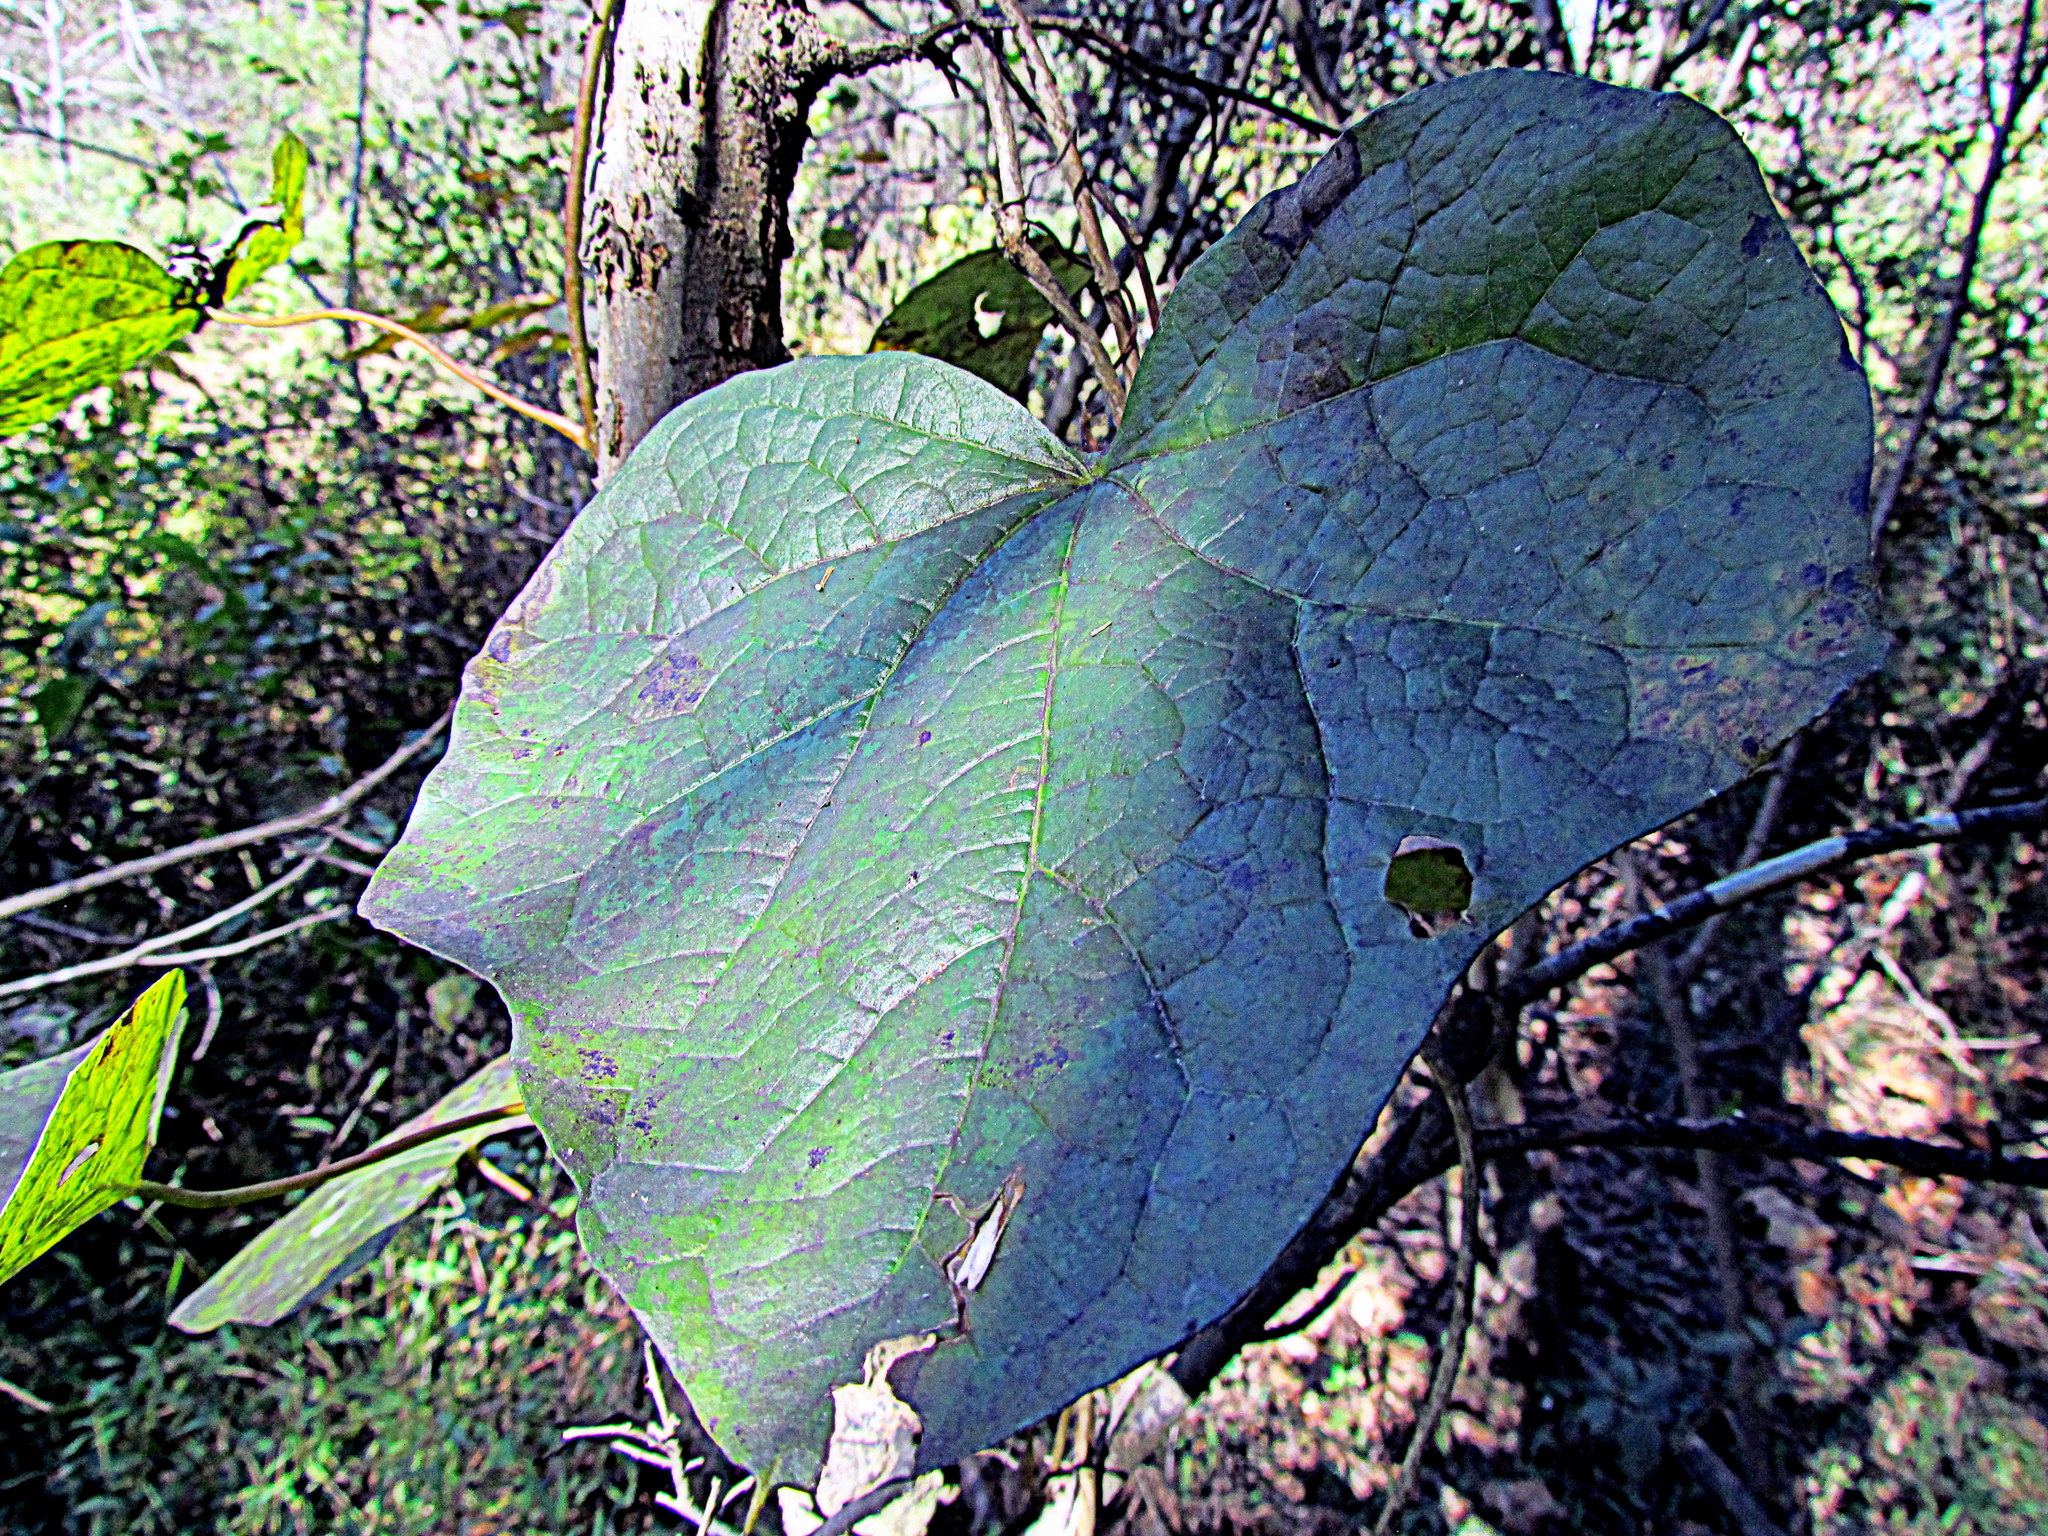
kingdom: Plantae
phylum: Tracheophyta
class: Magnoliopsida
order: Ranunculales
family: Menispermaceae
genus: Menispermum
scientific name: Menispermum canadense
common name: Moonseed
